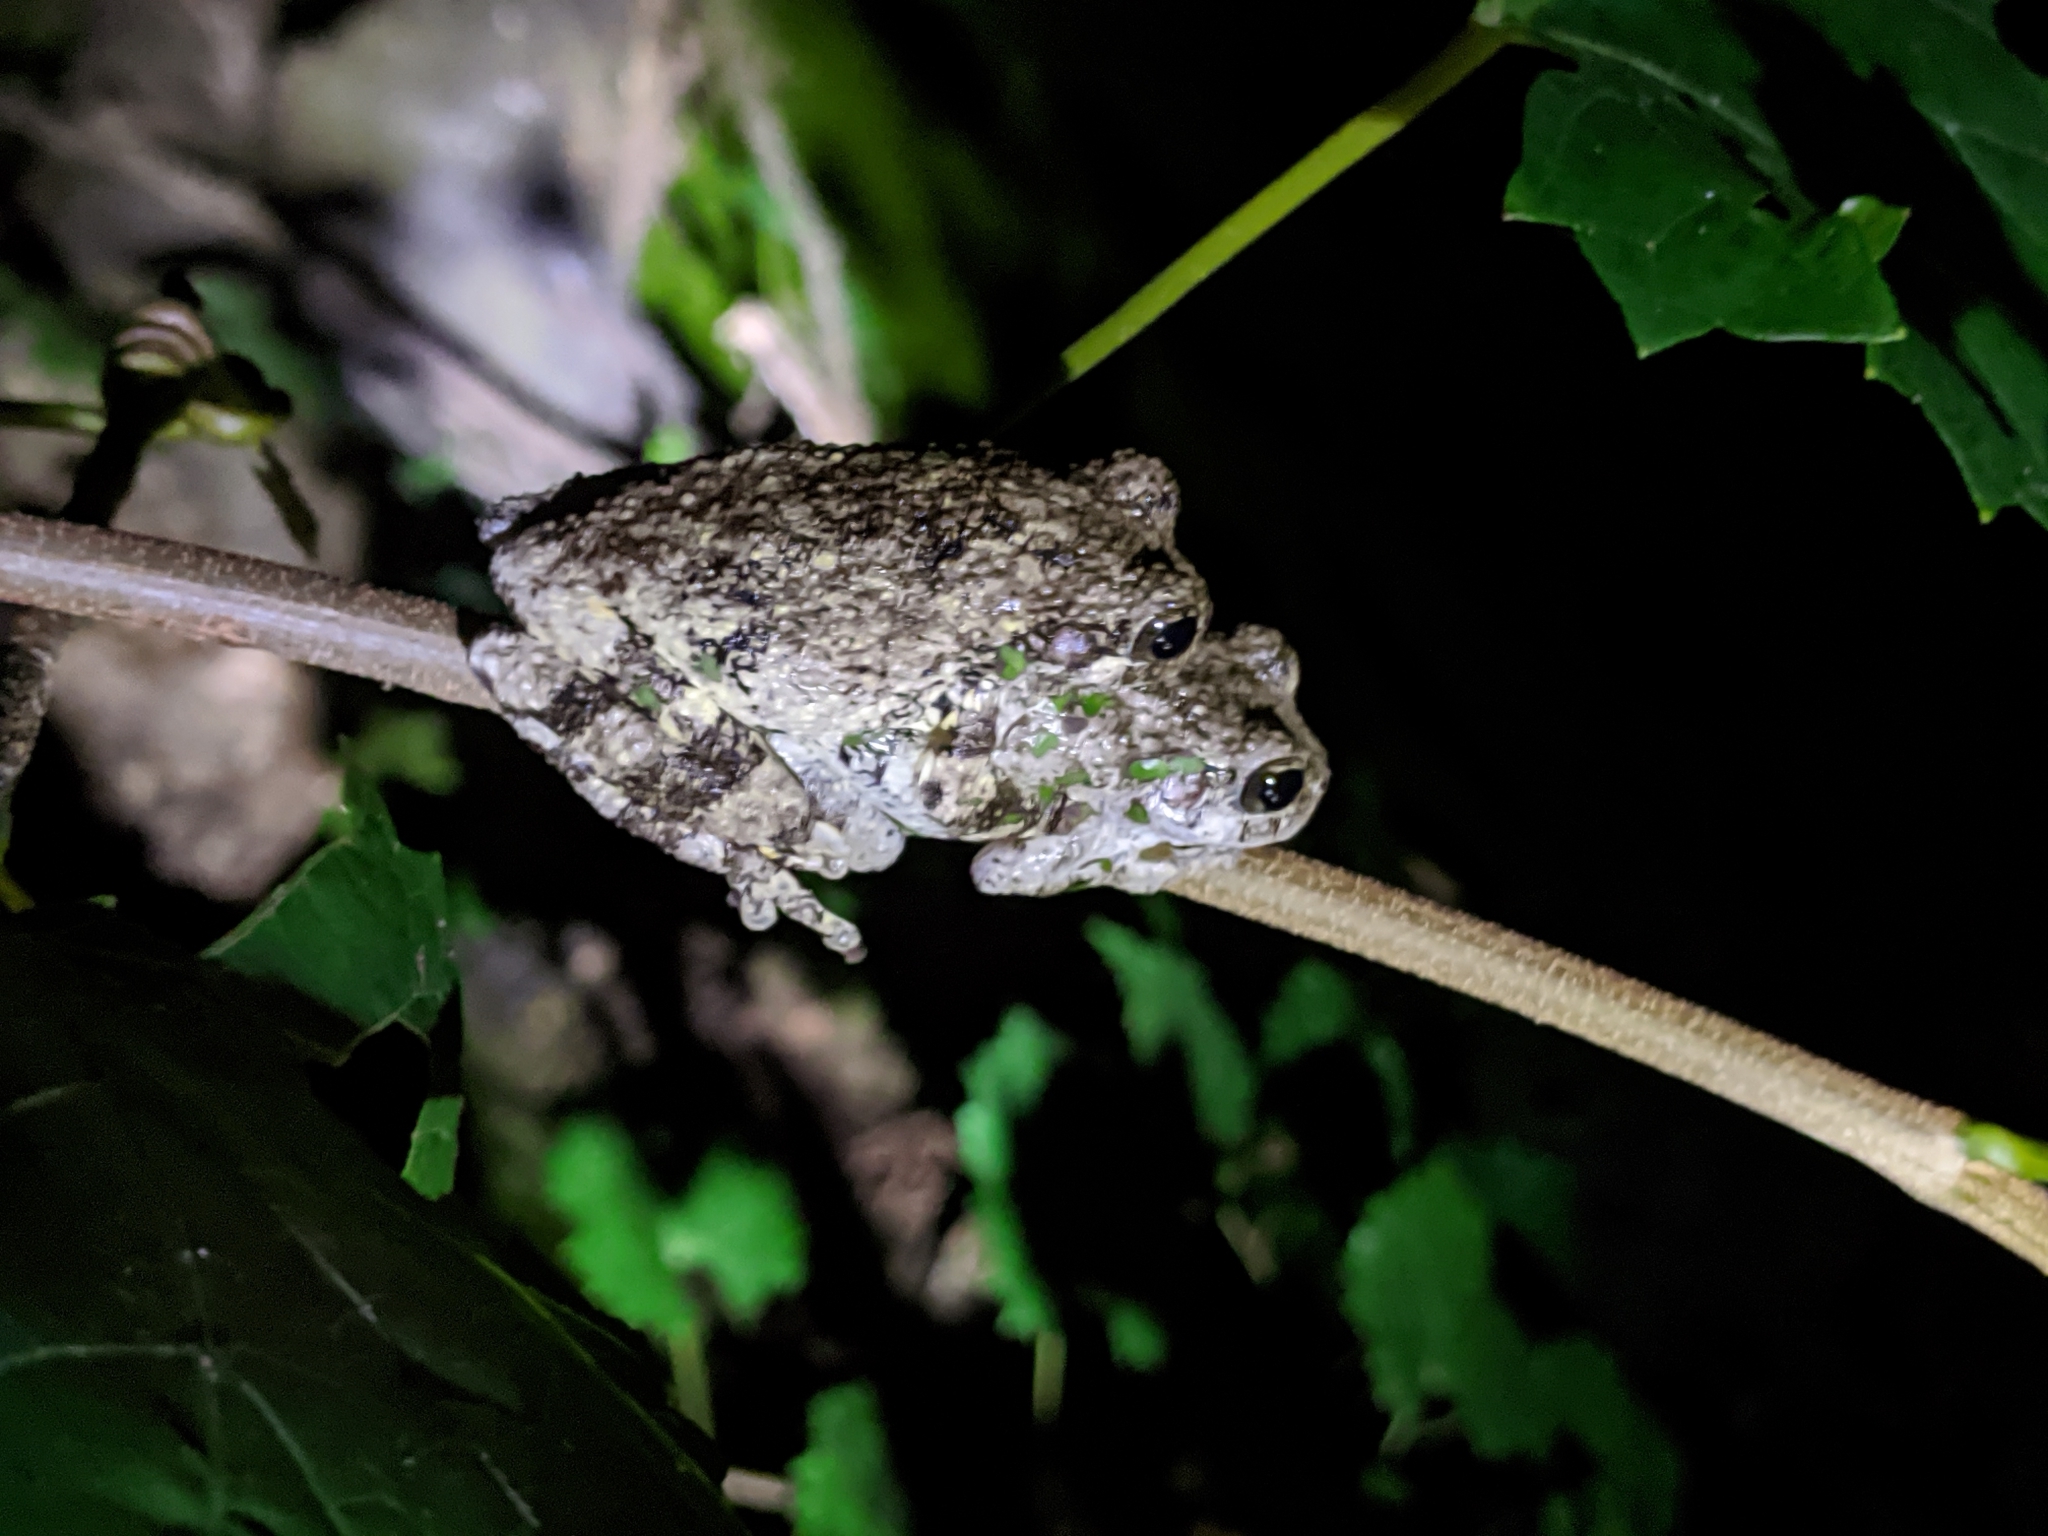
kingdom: Animalia
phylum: Chordata
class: Amphibia
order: Anura
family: Hylidae
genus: Dryophytes
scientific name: Dryophytes chrysoscelis
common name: Cope's gray treefrog
